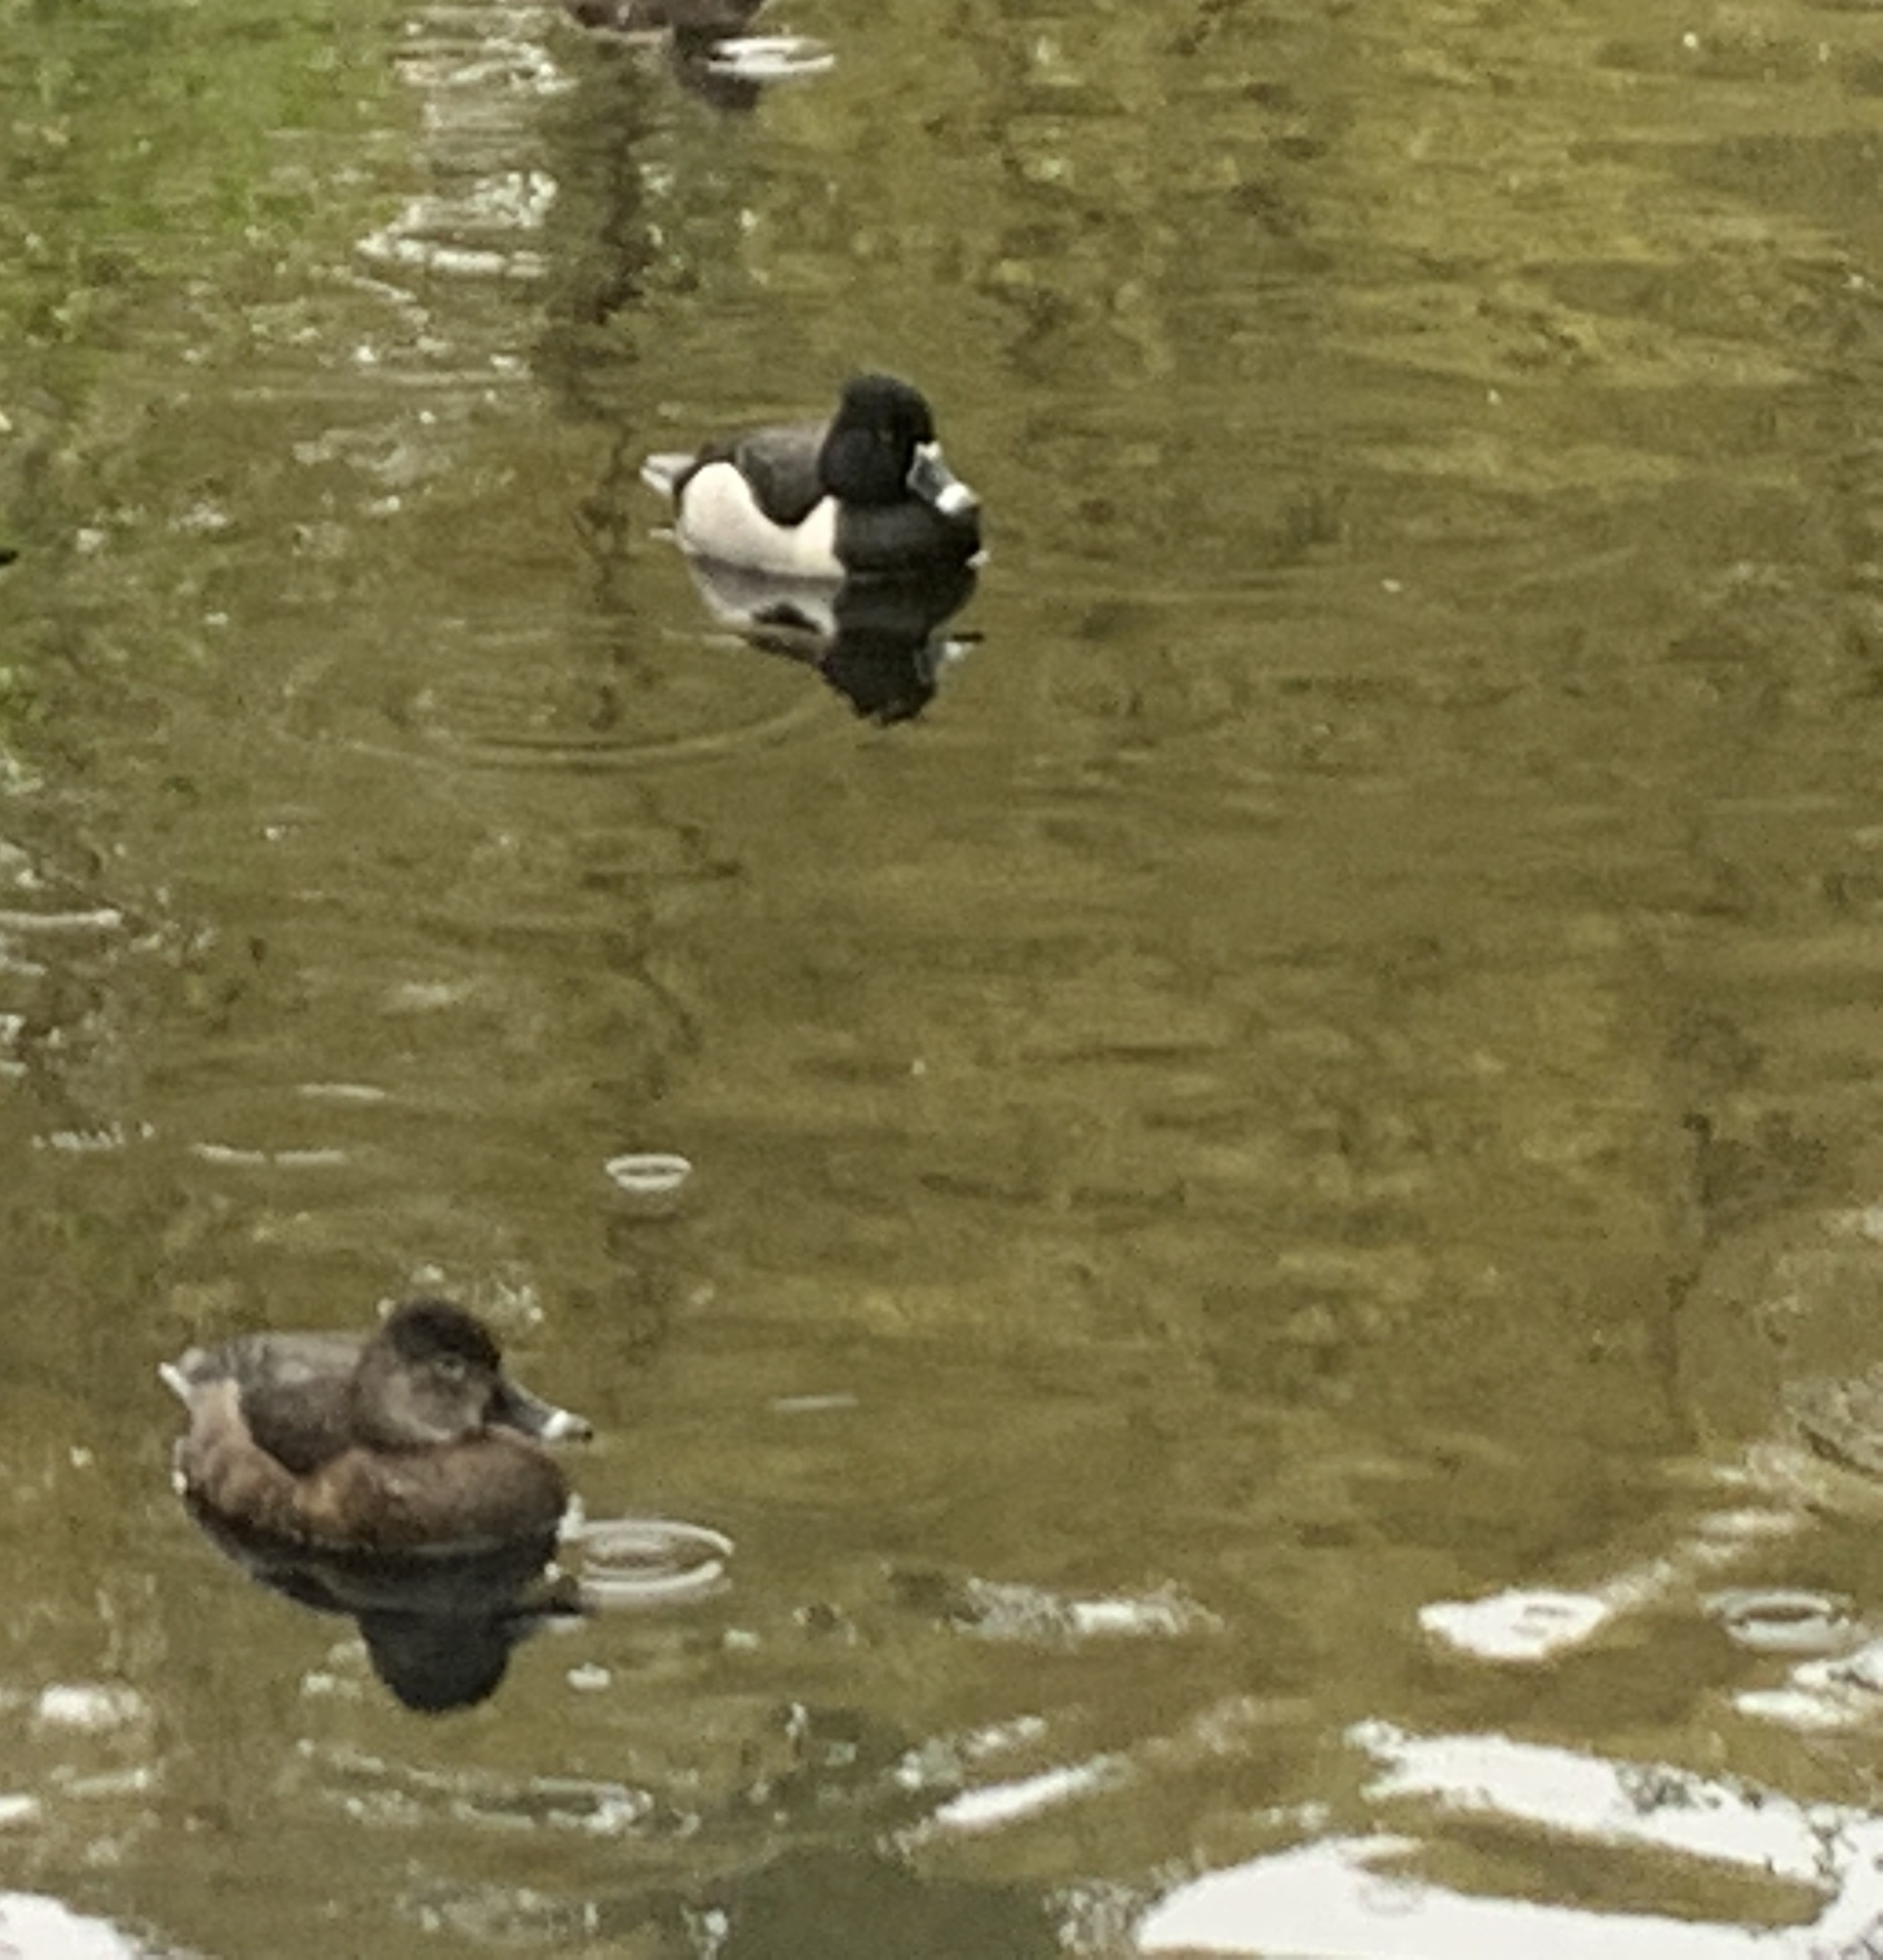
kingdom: Animalia
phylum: Chordata
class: Aves
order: Anseriformes
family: Anatidae
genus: Aythya
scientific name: Aythya collaris
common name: Ring-necked duck
